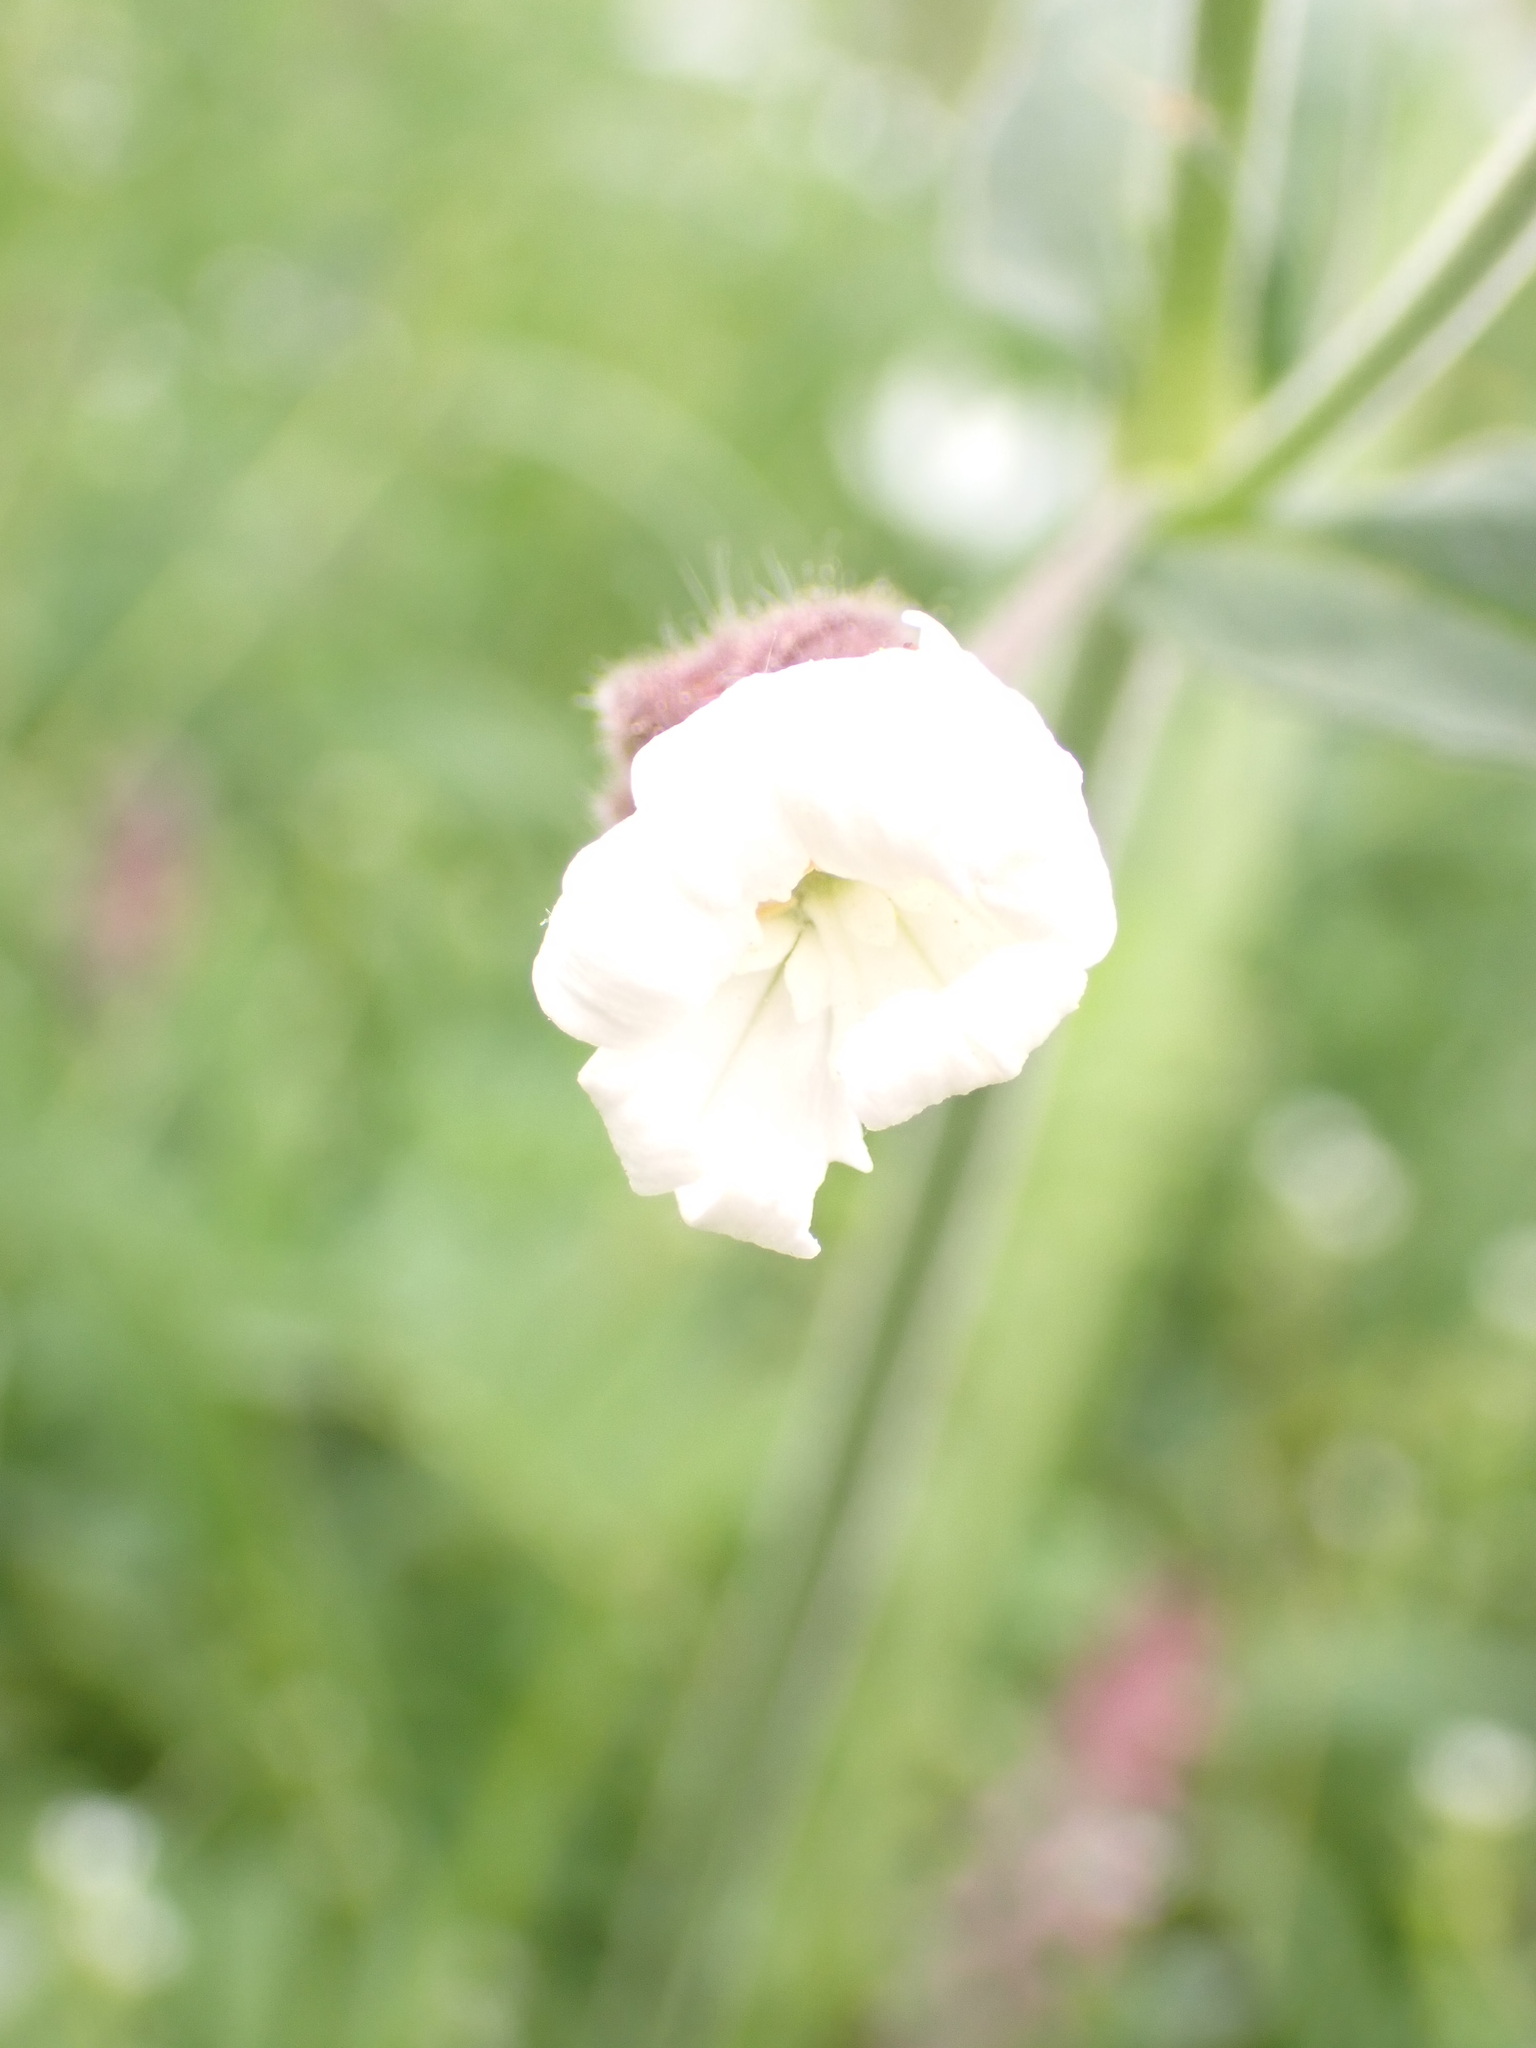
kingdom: Plantae
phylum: Tracheophyta
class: Magnoliopsida
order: Caryophyllales
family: Caryophyllaceae
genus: Silene
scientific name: Silene latifolia
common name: White campion
